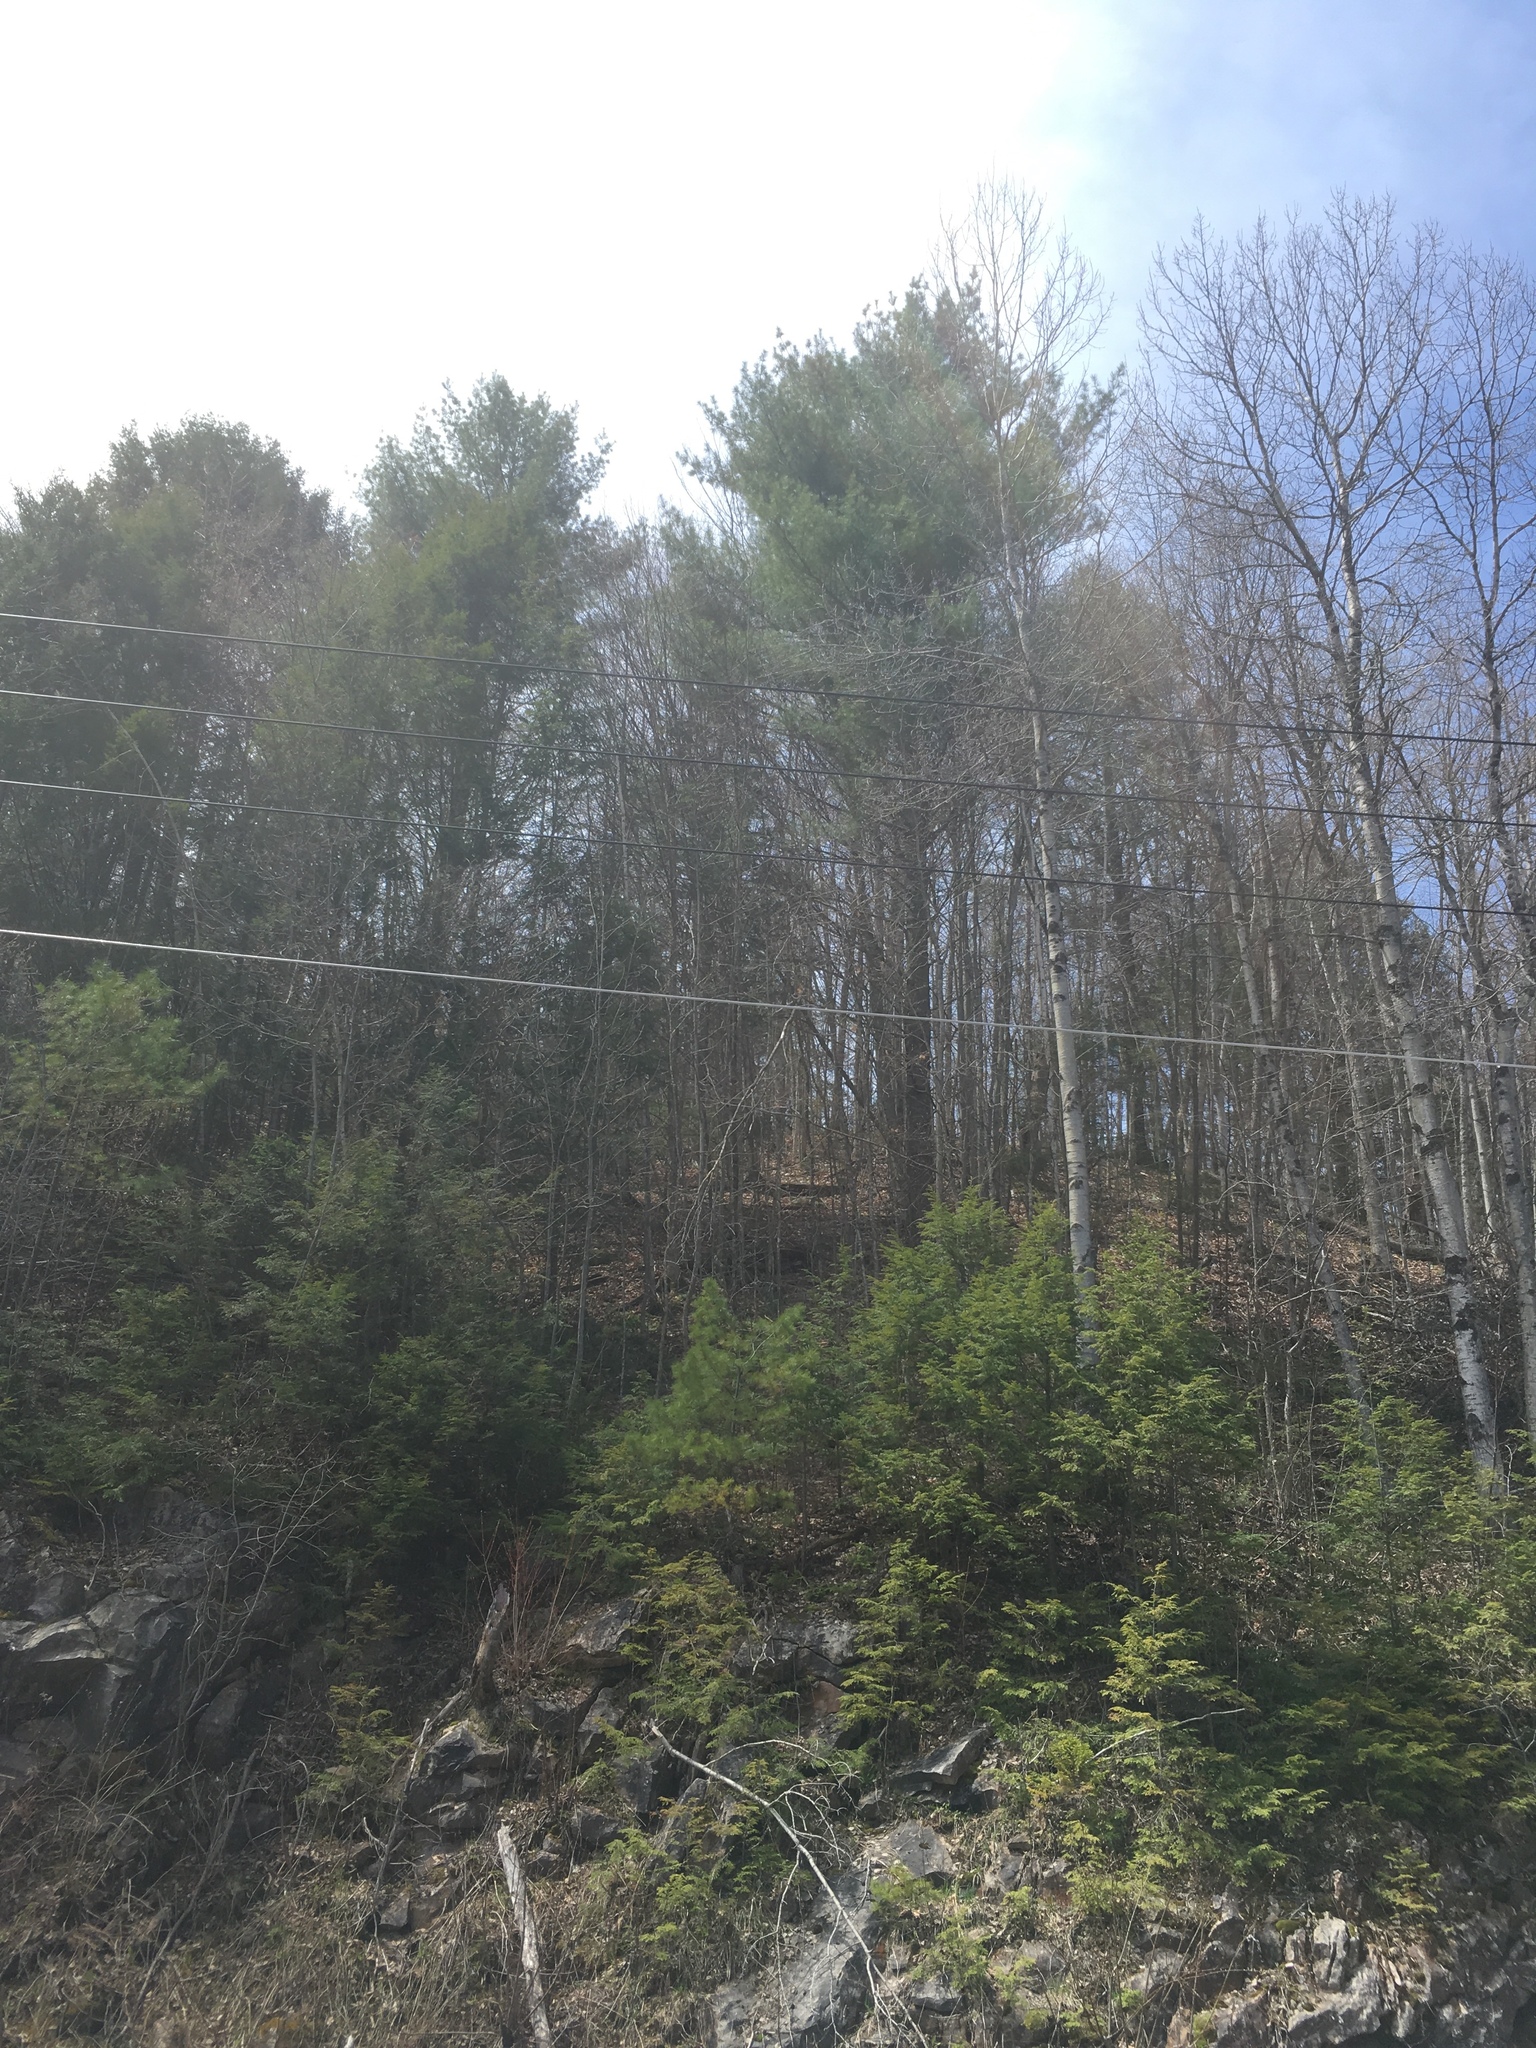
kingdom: Plantae
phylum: Tracheophyta
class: Pinopsida
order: Pinales
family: Pinaceae
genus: Pinus
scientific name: Pinus strobus
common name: Weymouth pine
